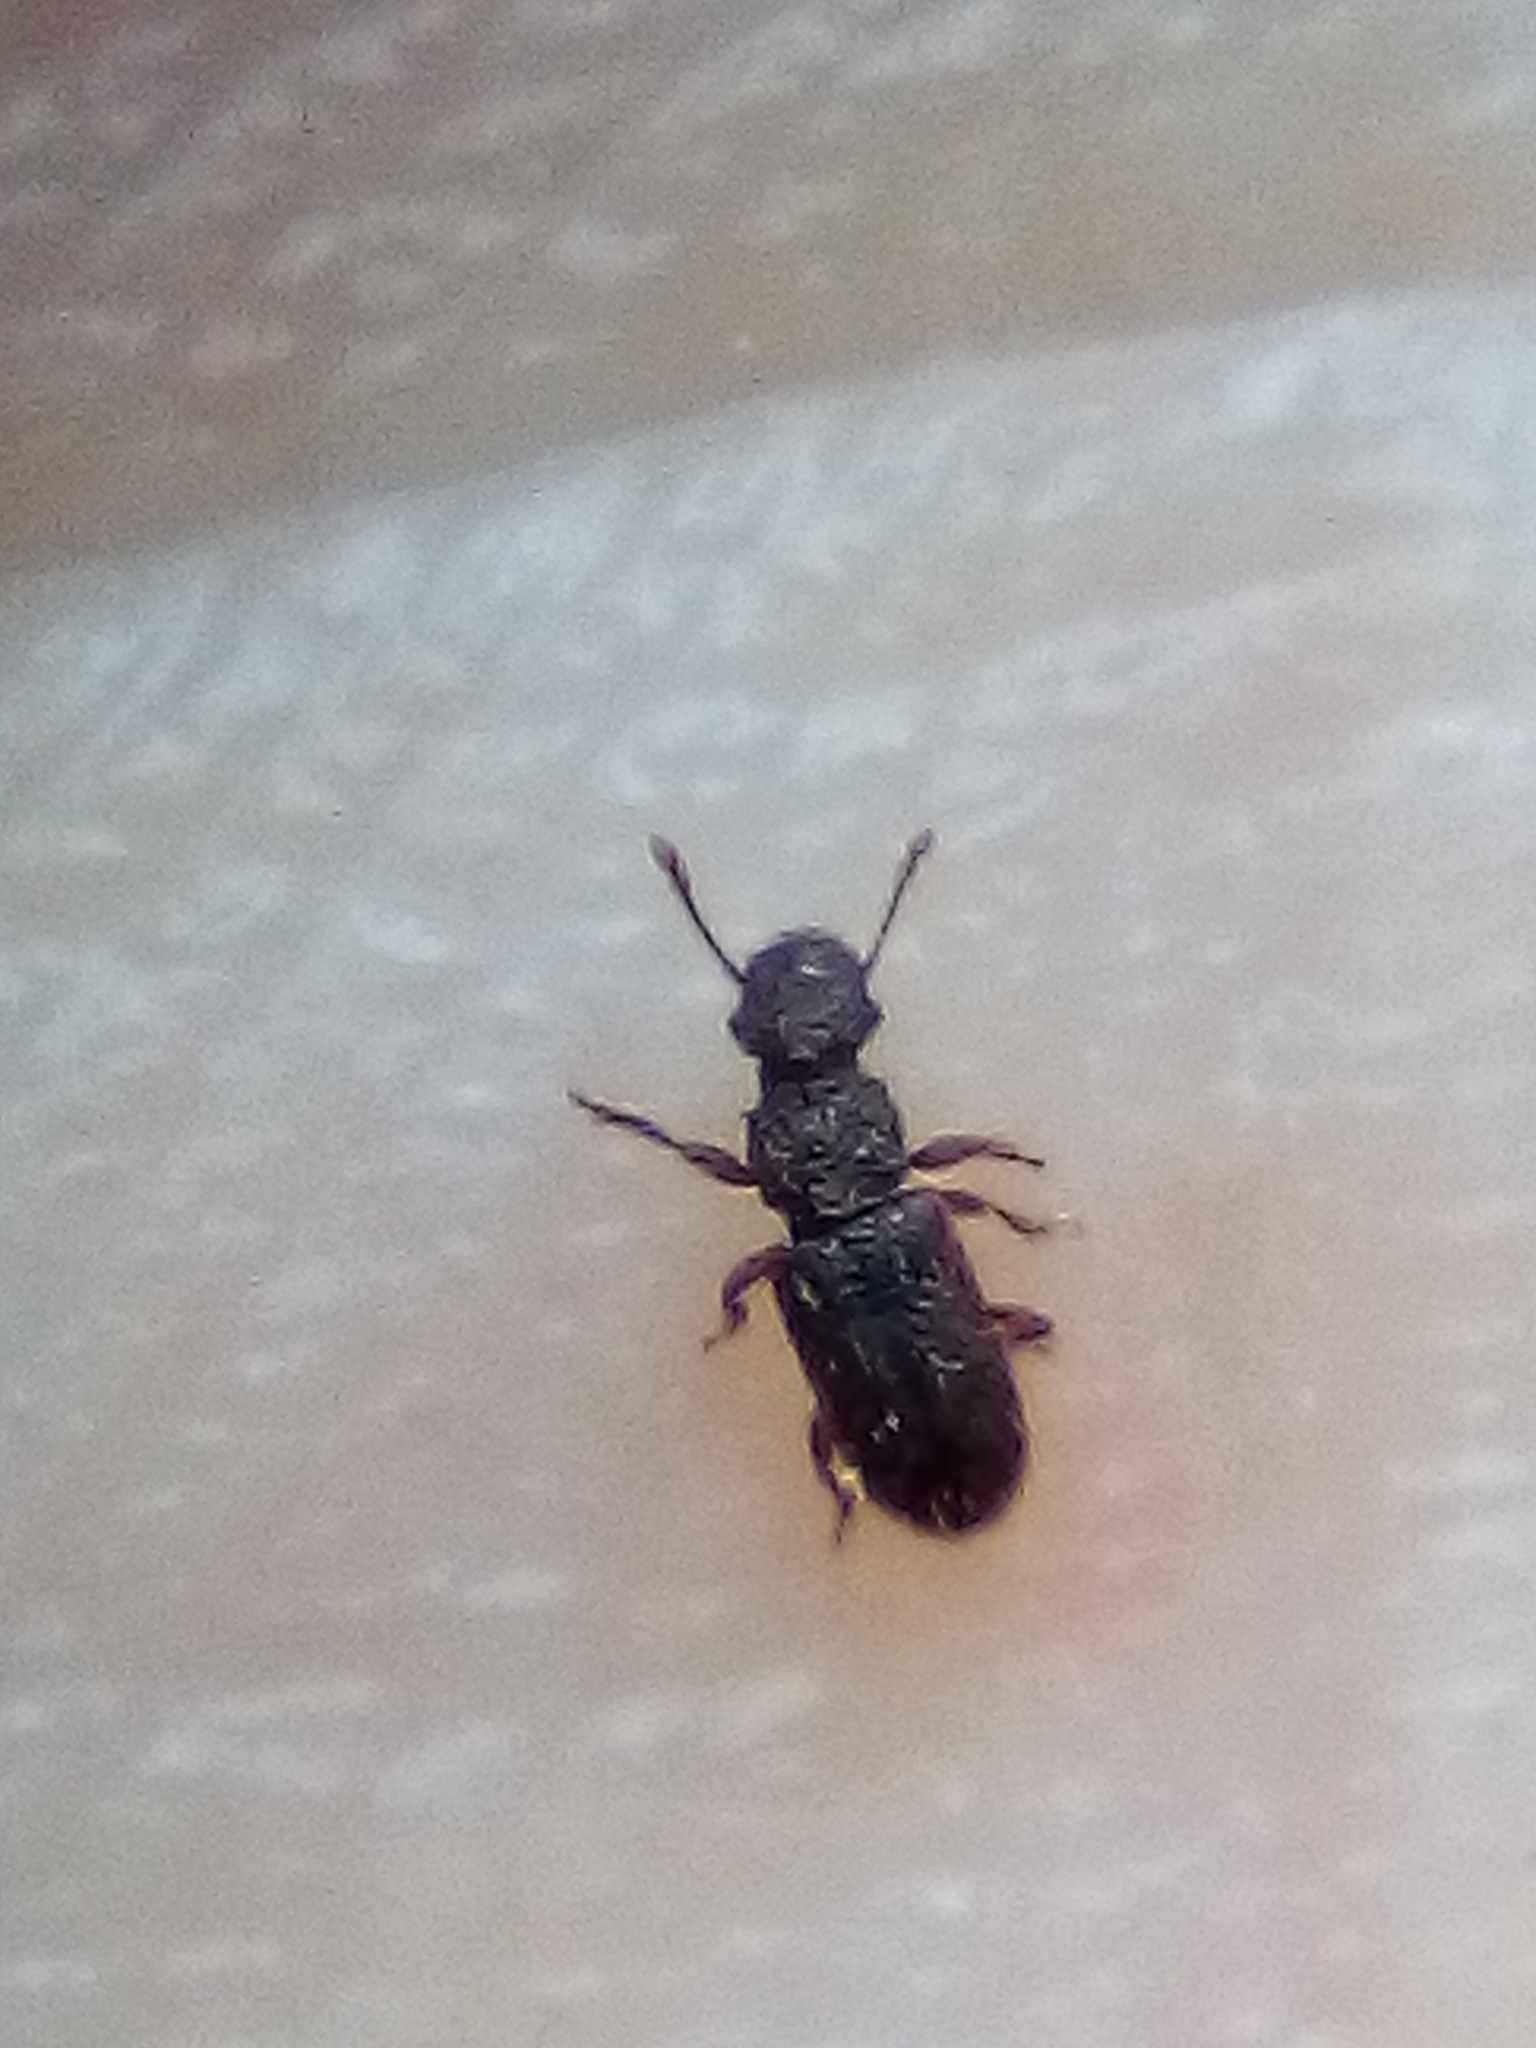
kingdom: Animalia
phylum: Arthropoda
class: Insecta
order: Coleoptera
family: Belidae
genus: Aralius
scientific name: Aralius wollastoni
